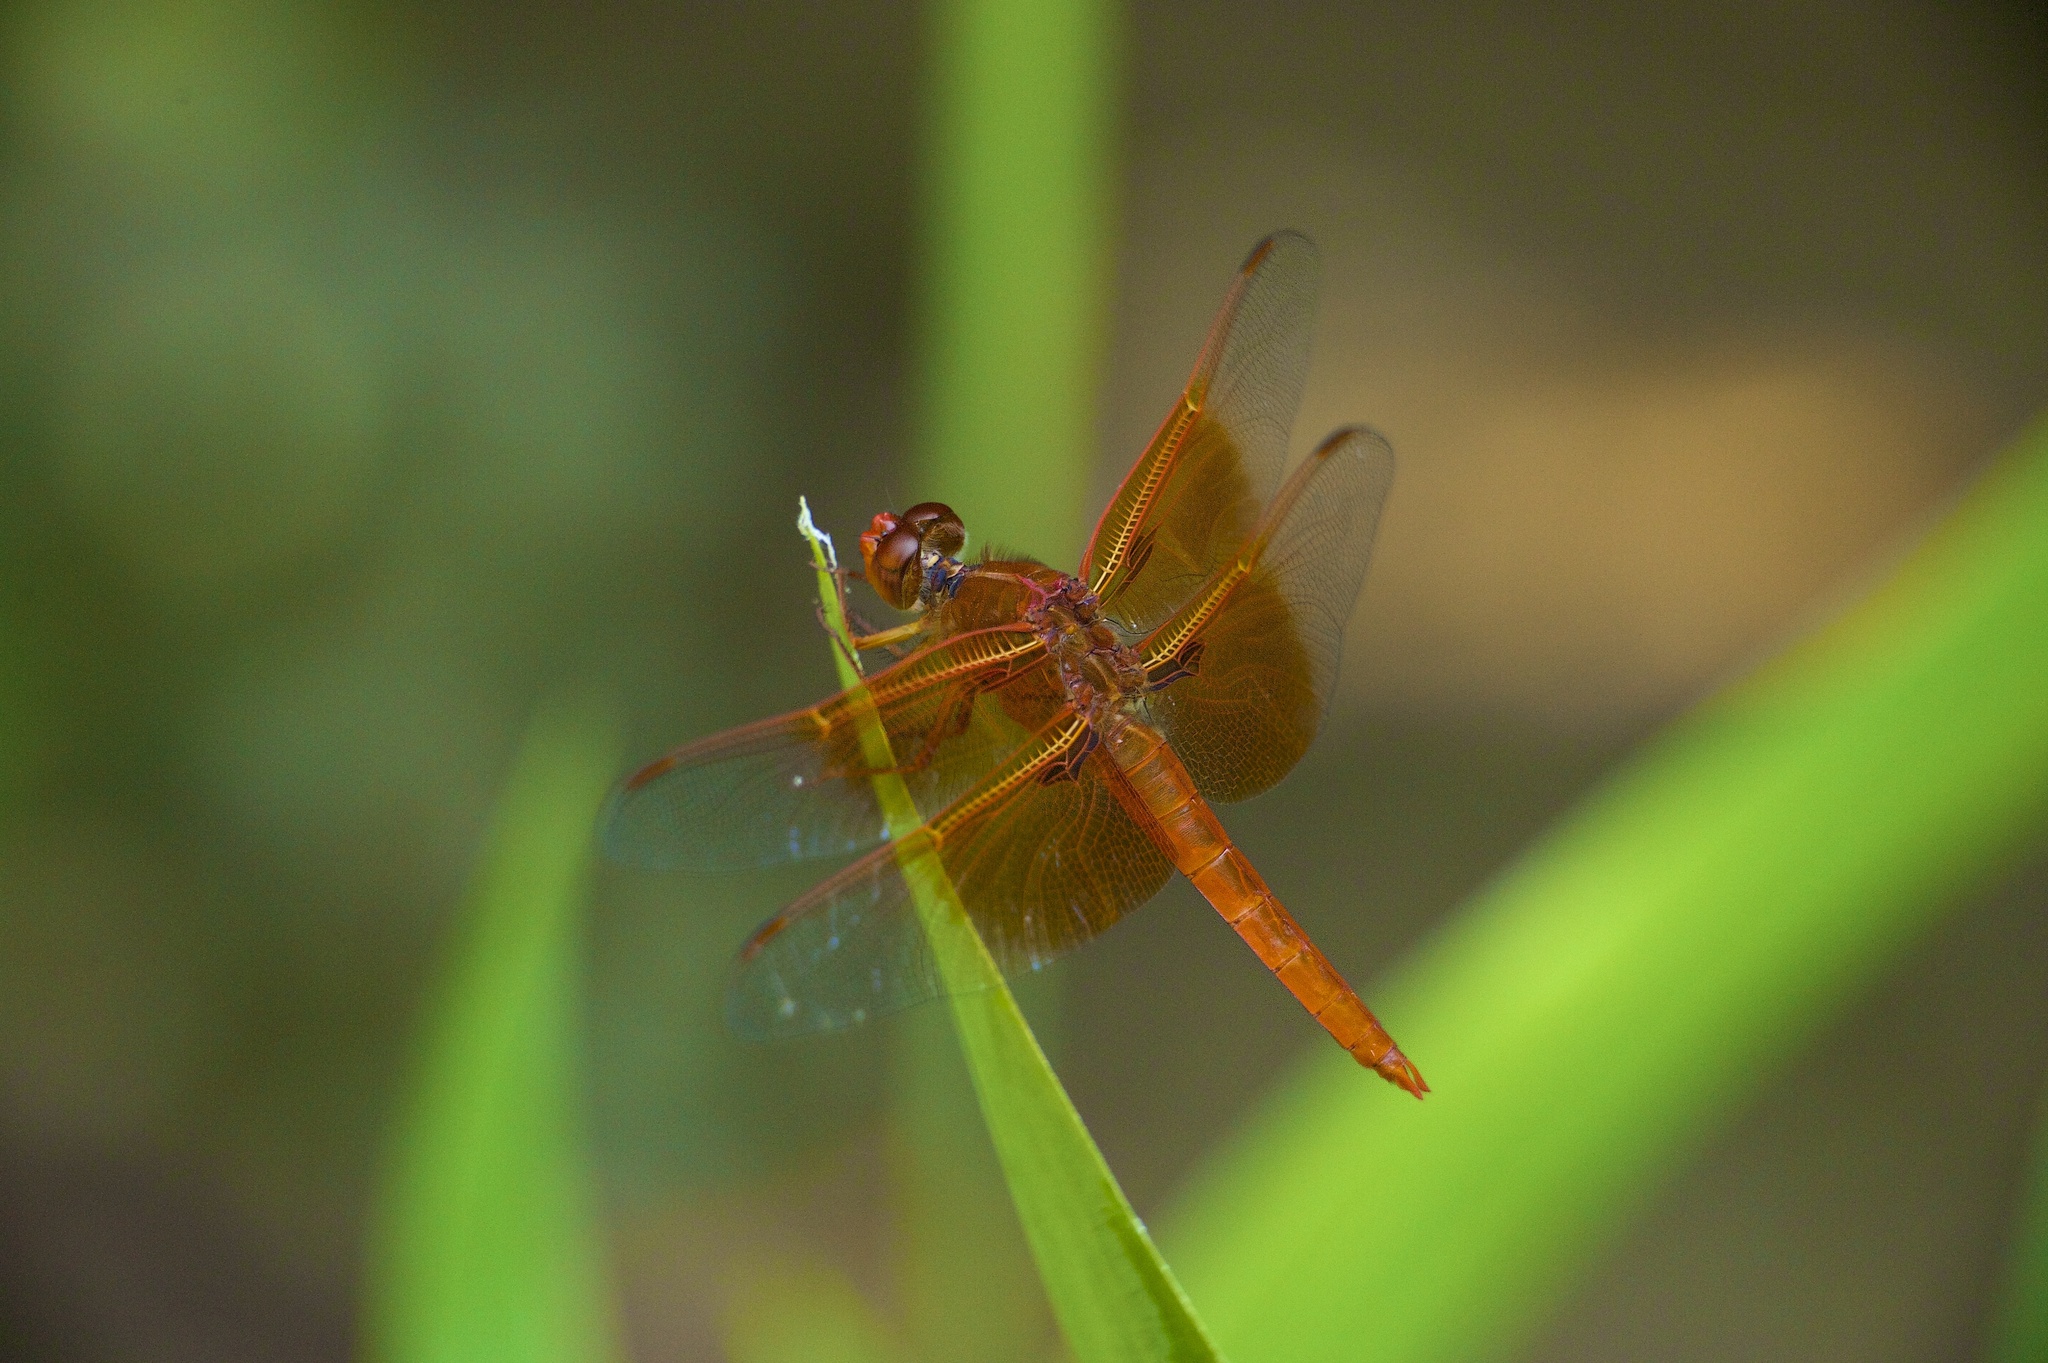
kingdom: Animalia
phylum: Arthropoda
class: Insecta
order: Odonata
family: Libellulidae
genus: Libellula
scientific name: Libellula saturata
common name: Flame skimmer
